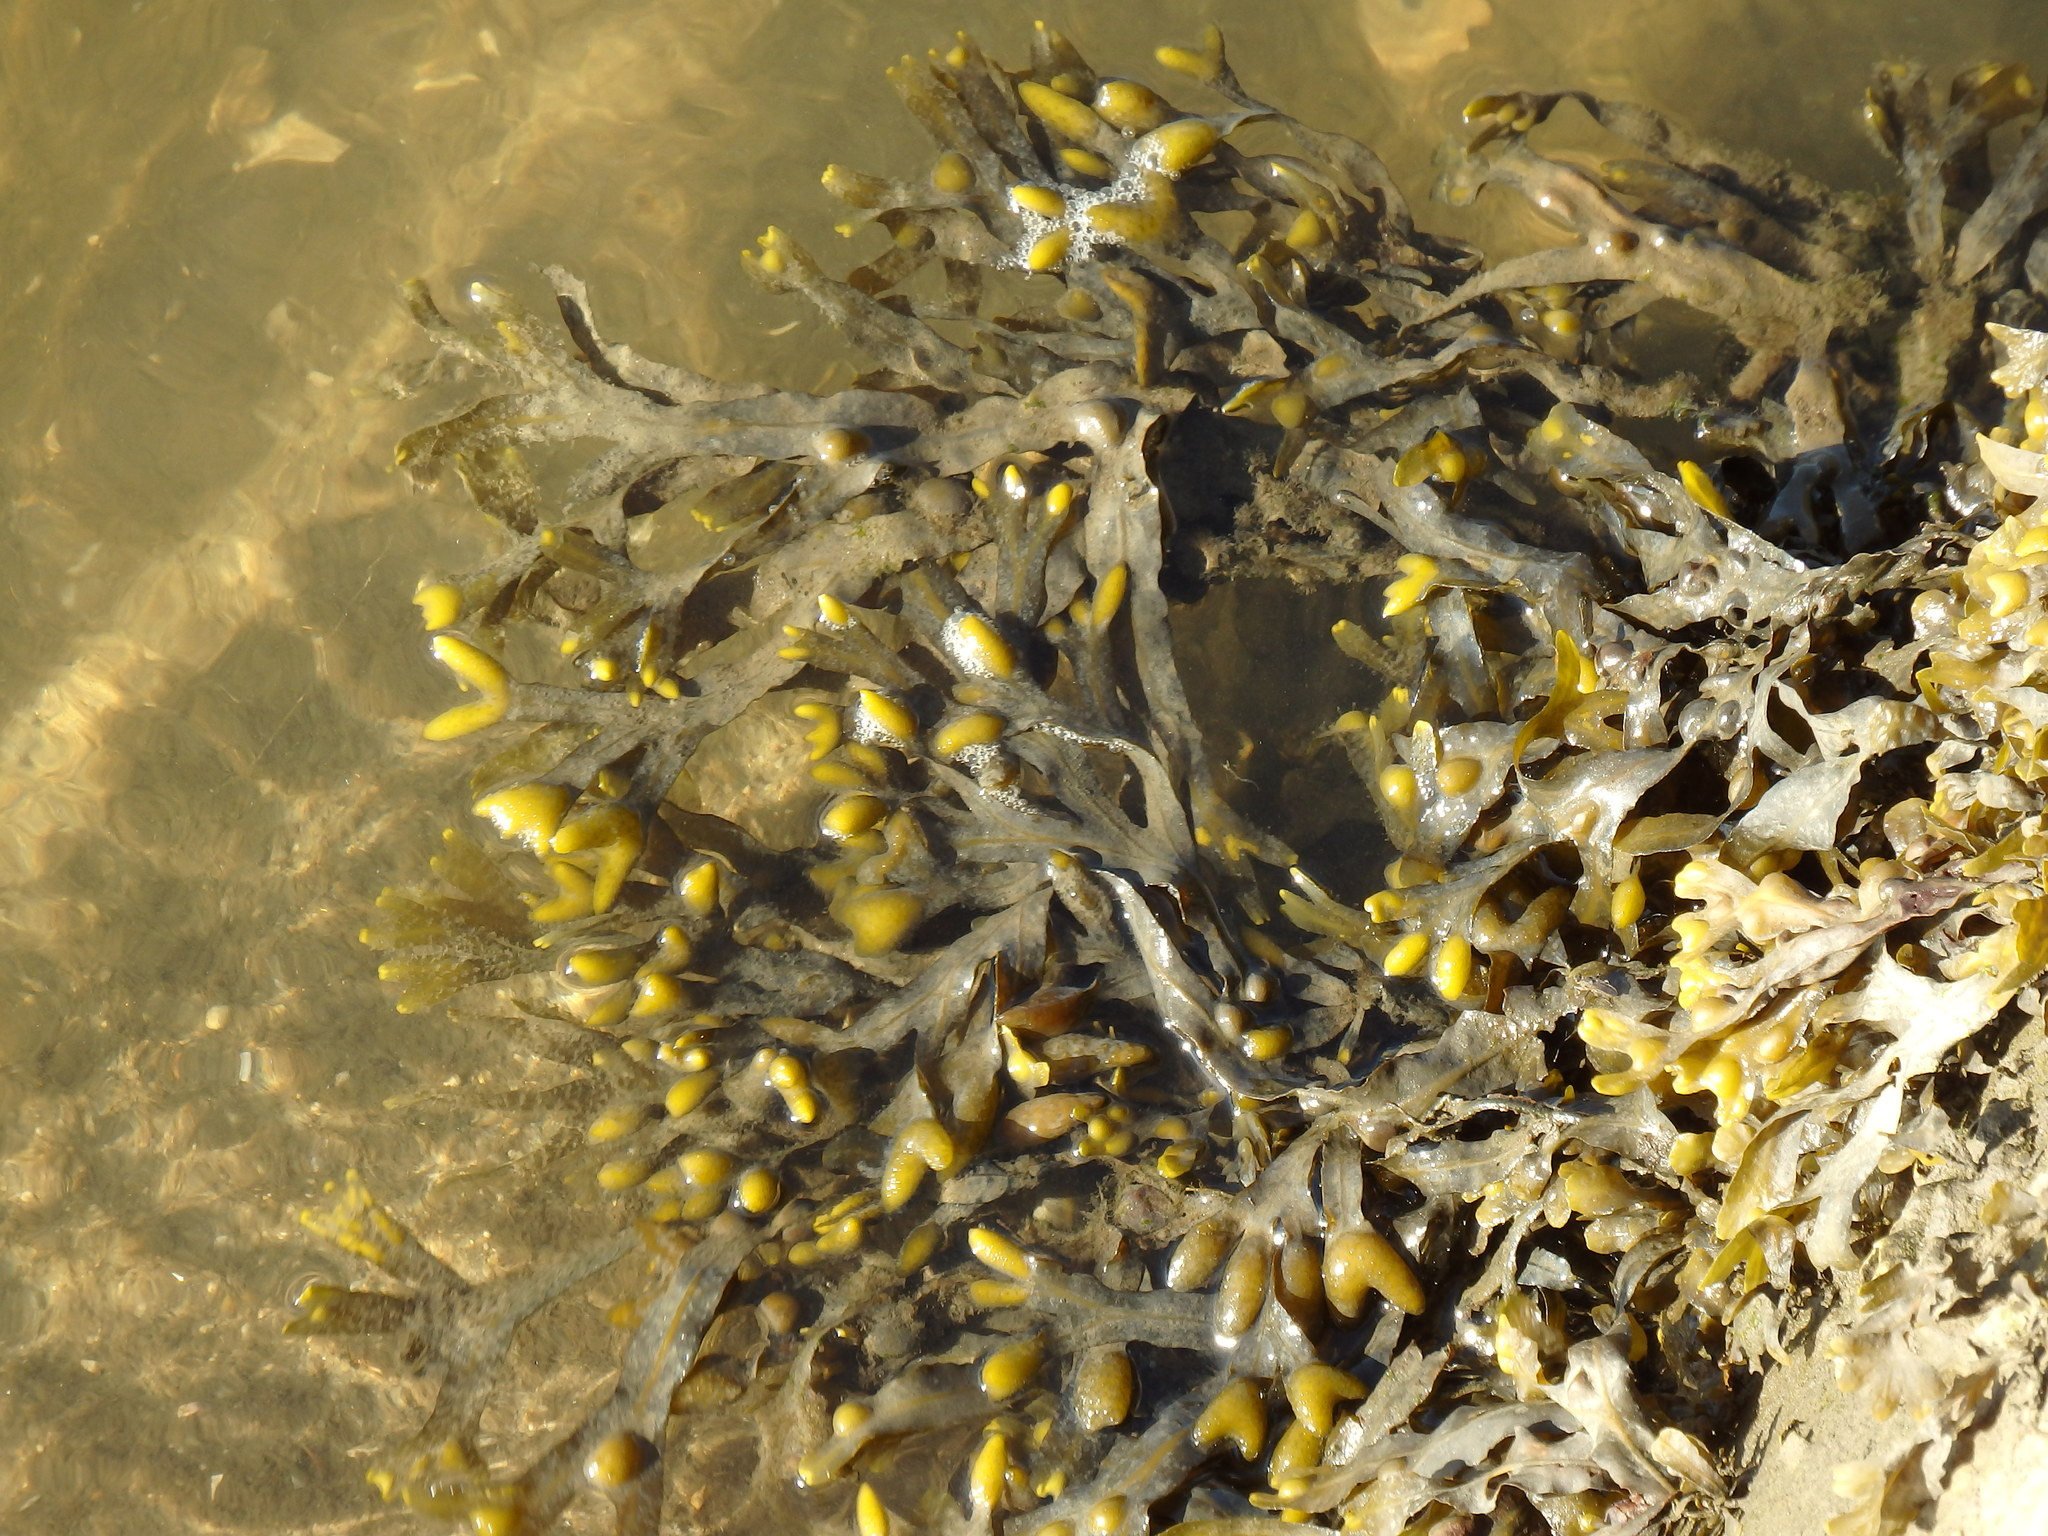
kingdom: Chromista
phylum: Ochrophyta
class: Phaeophyceae
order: Fucales
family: Fucaceae
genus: Fucus
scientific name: Fucus vesiculosus
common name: Bladder wrack
